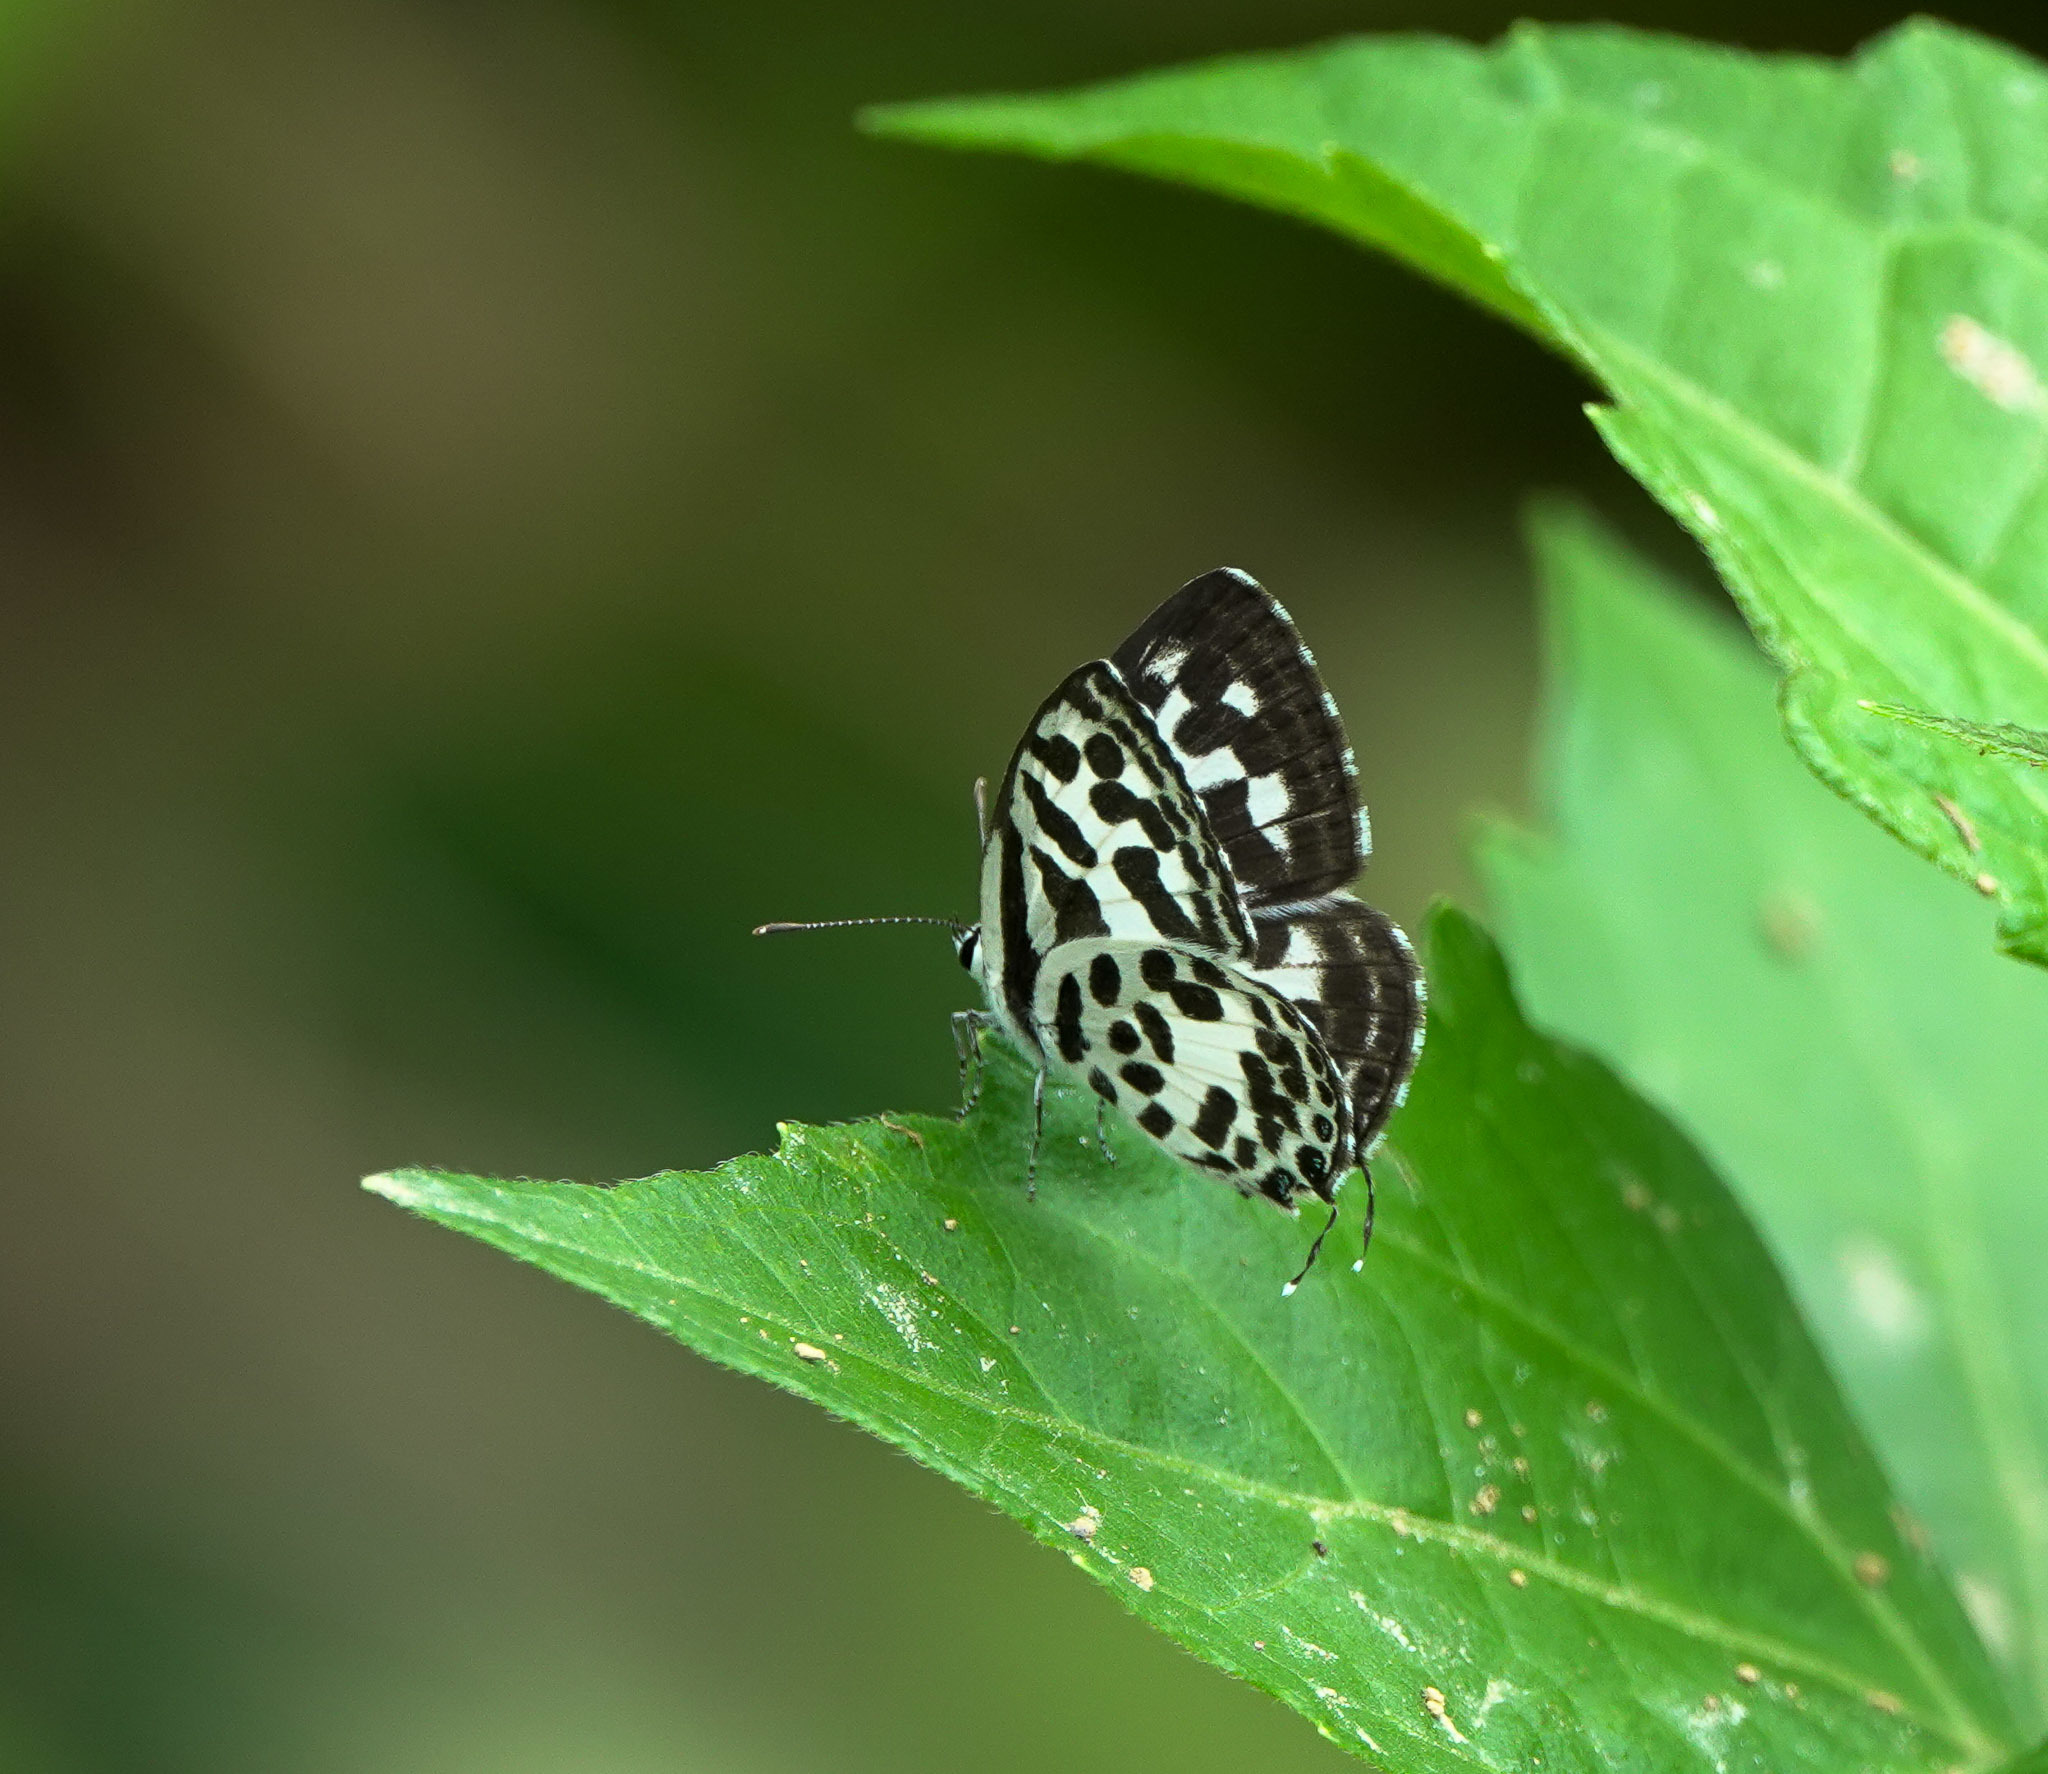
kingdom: Animalia
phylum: Arthropoda
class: Insecta
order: Lepidoptera
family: Lycaenidae
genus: Castalius
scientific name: Castalius rosimon
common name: Common pierrot
